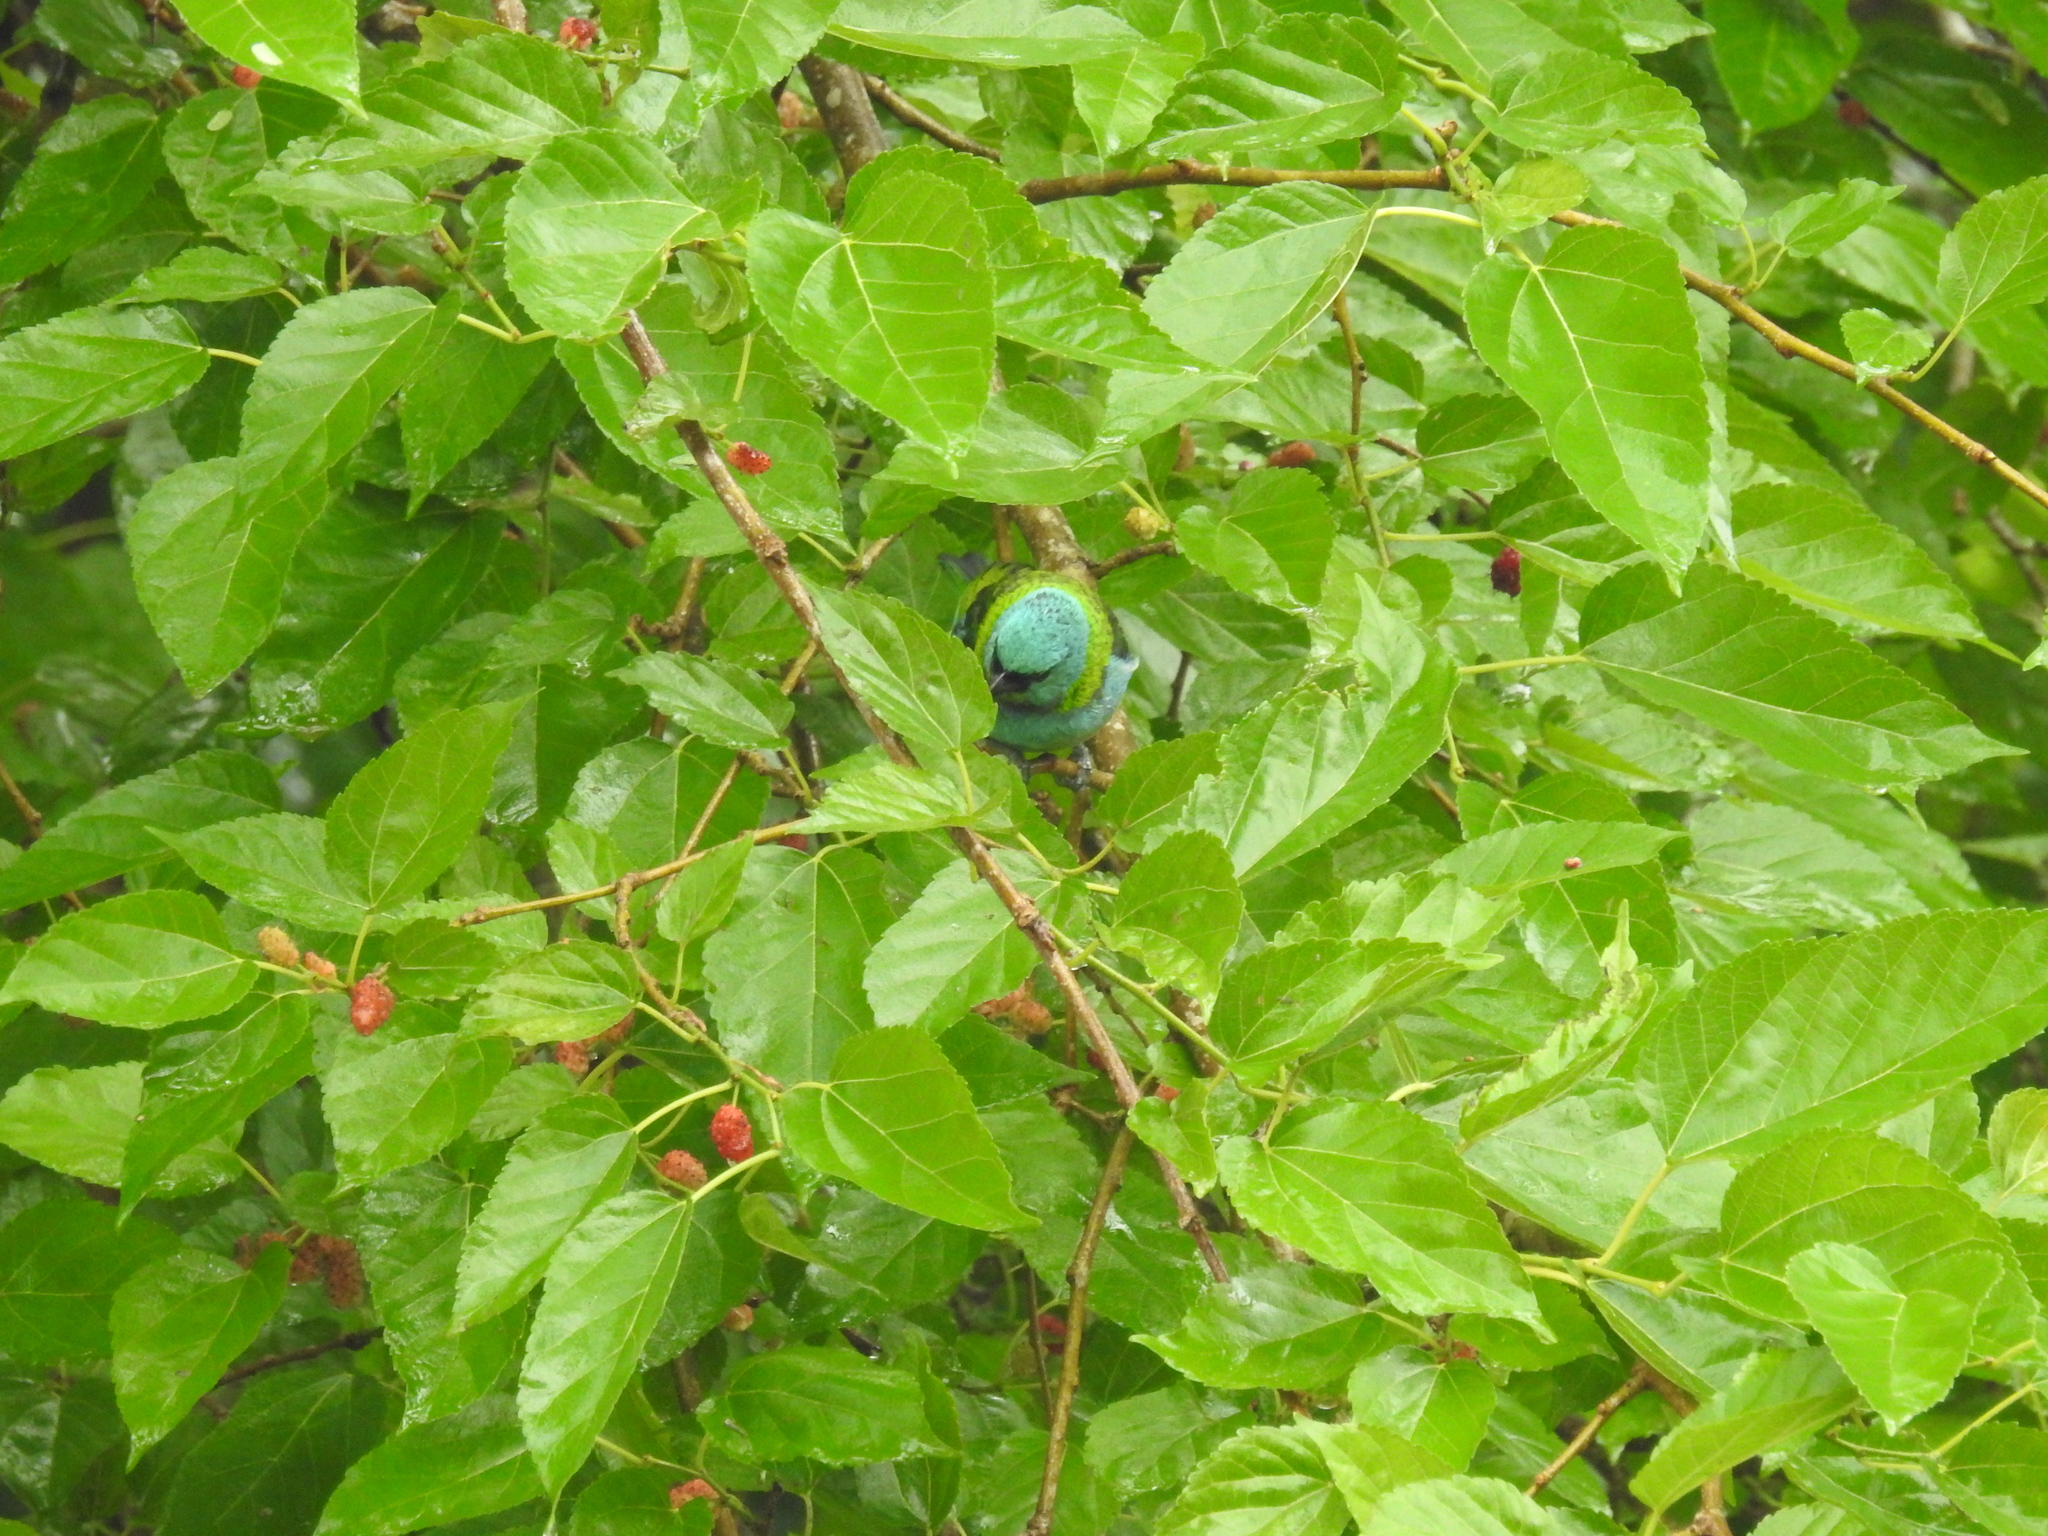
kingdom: Animalia
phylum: Chordata
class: Aves
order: Passeriformes
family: Thraupidae
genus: Tangara
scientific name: Tangara seledon
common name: Green-headed tanager
